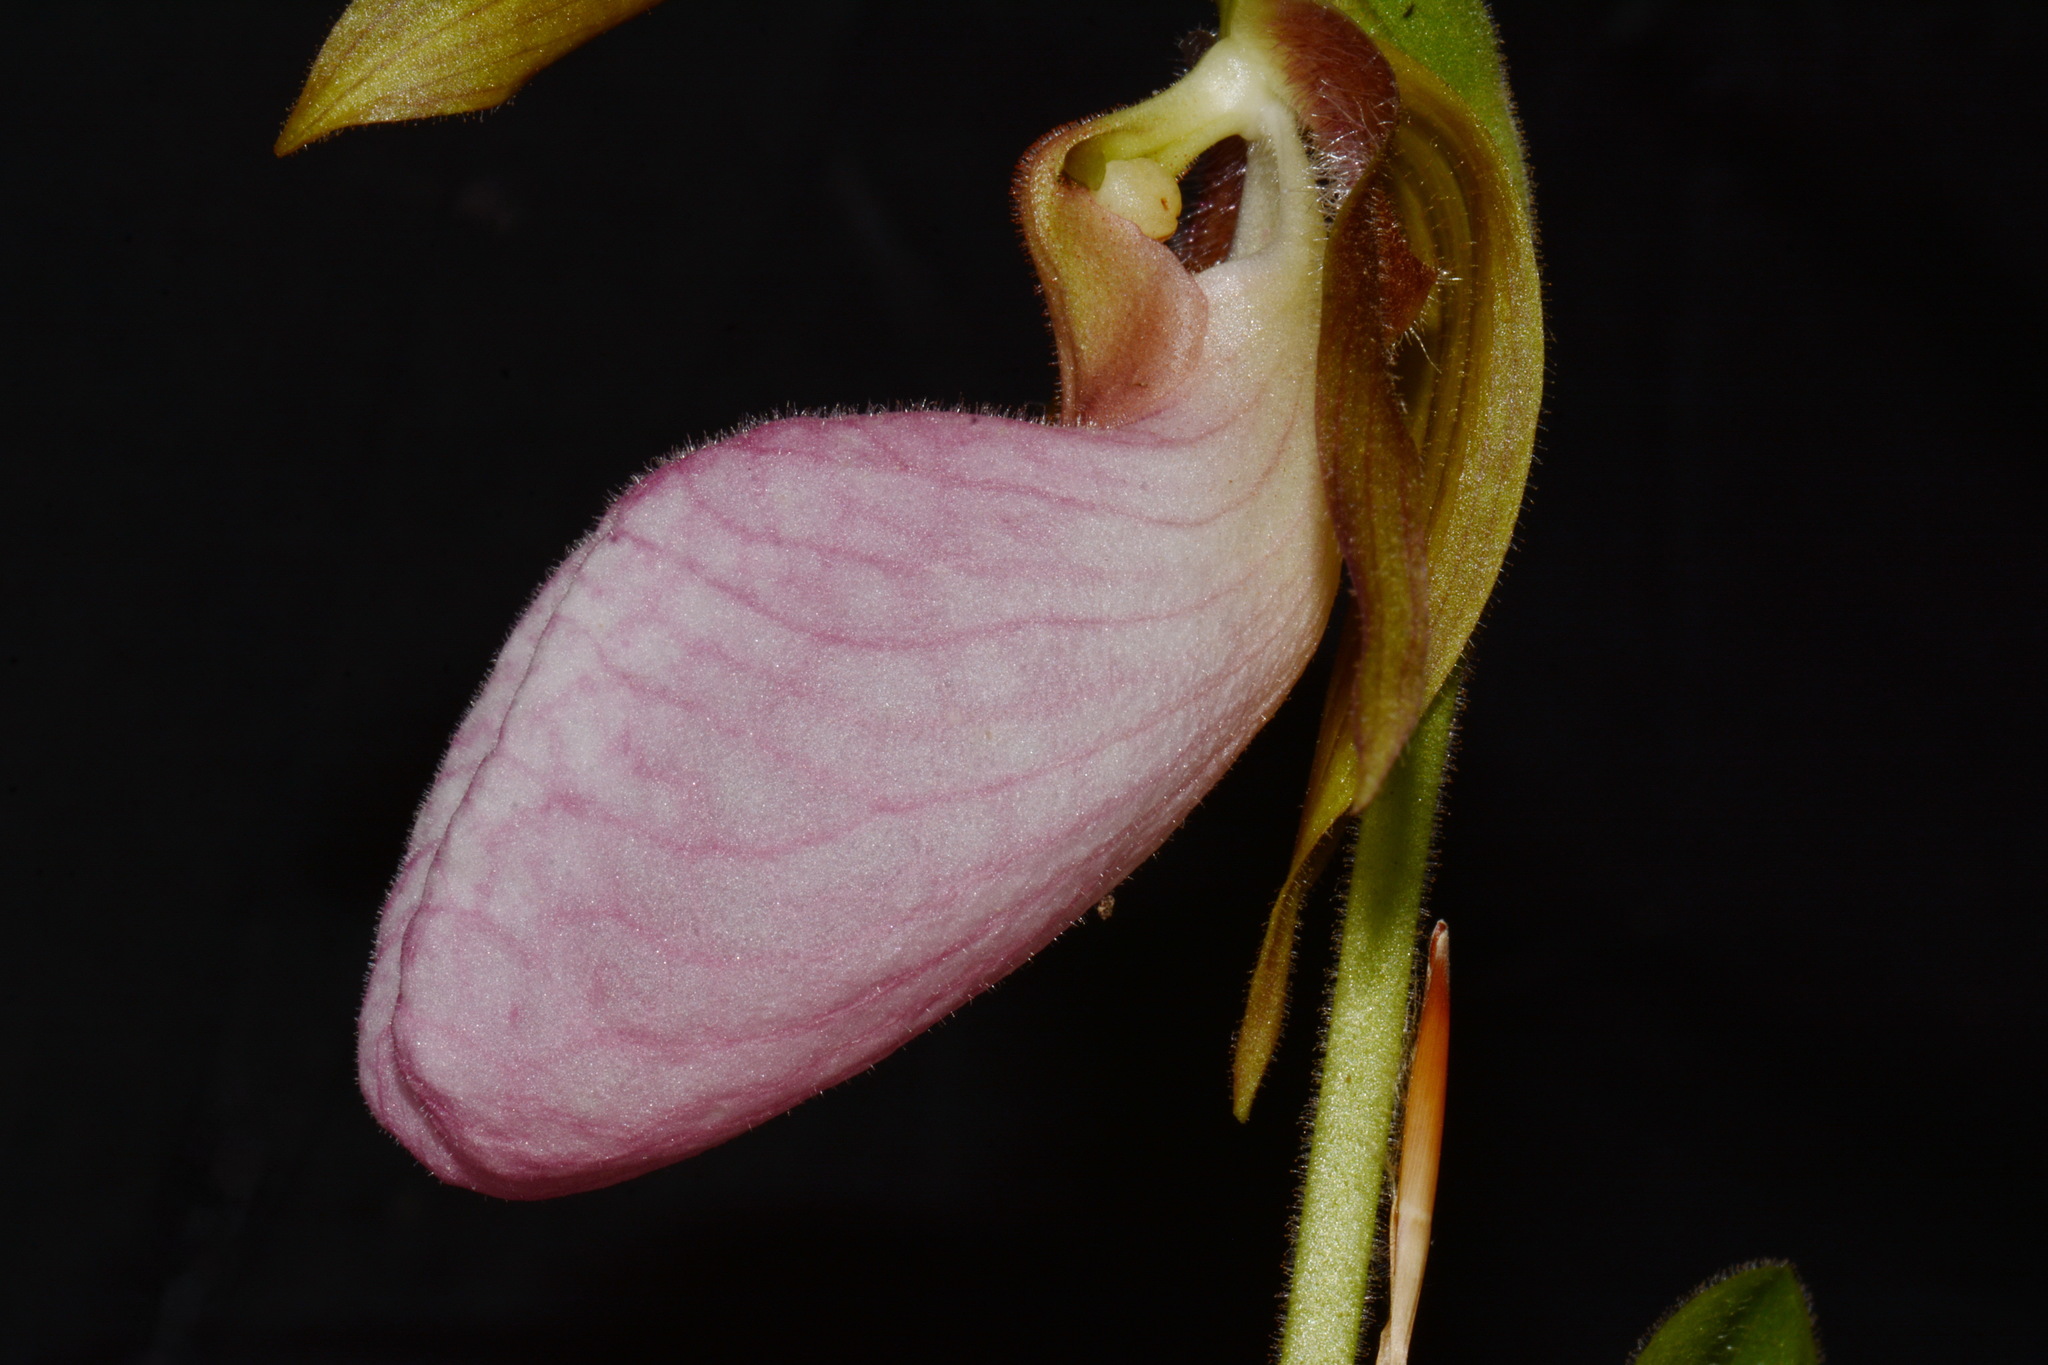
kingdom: Plantae
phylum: Tracheophyta
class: Liliopsida
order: Asparagales
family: Orchidaceae
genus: Cypripedium
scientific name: Cypripedium acaule
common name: Pink lady's-slipper
